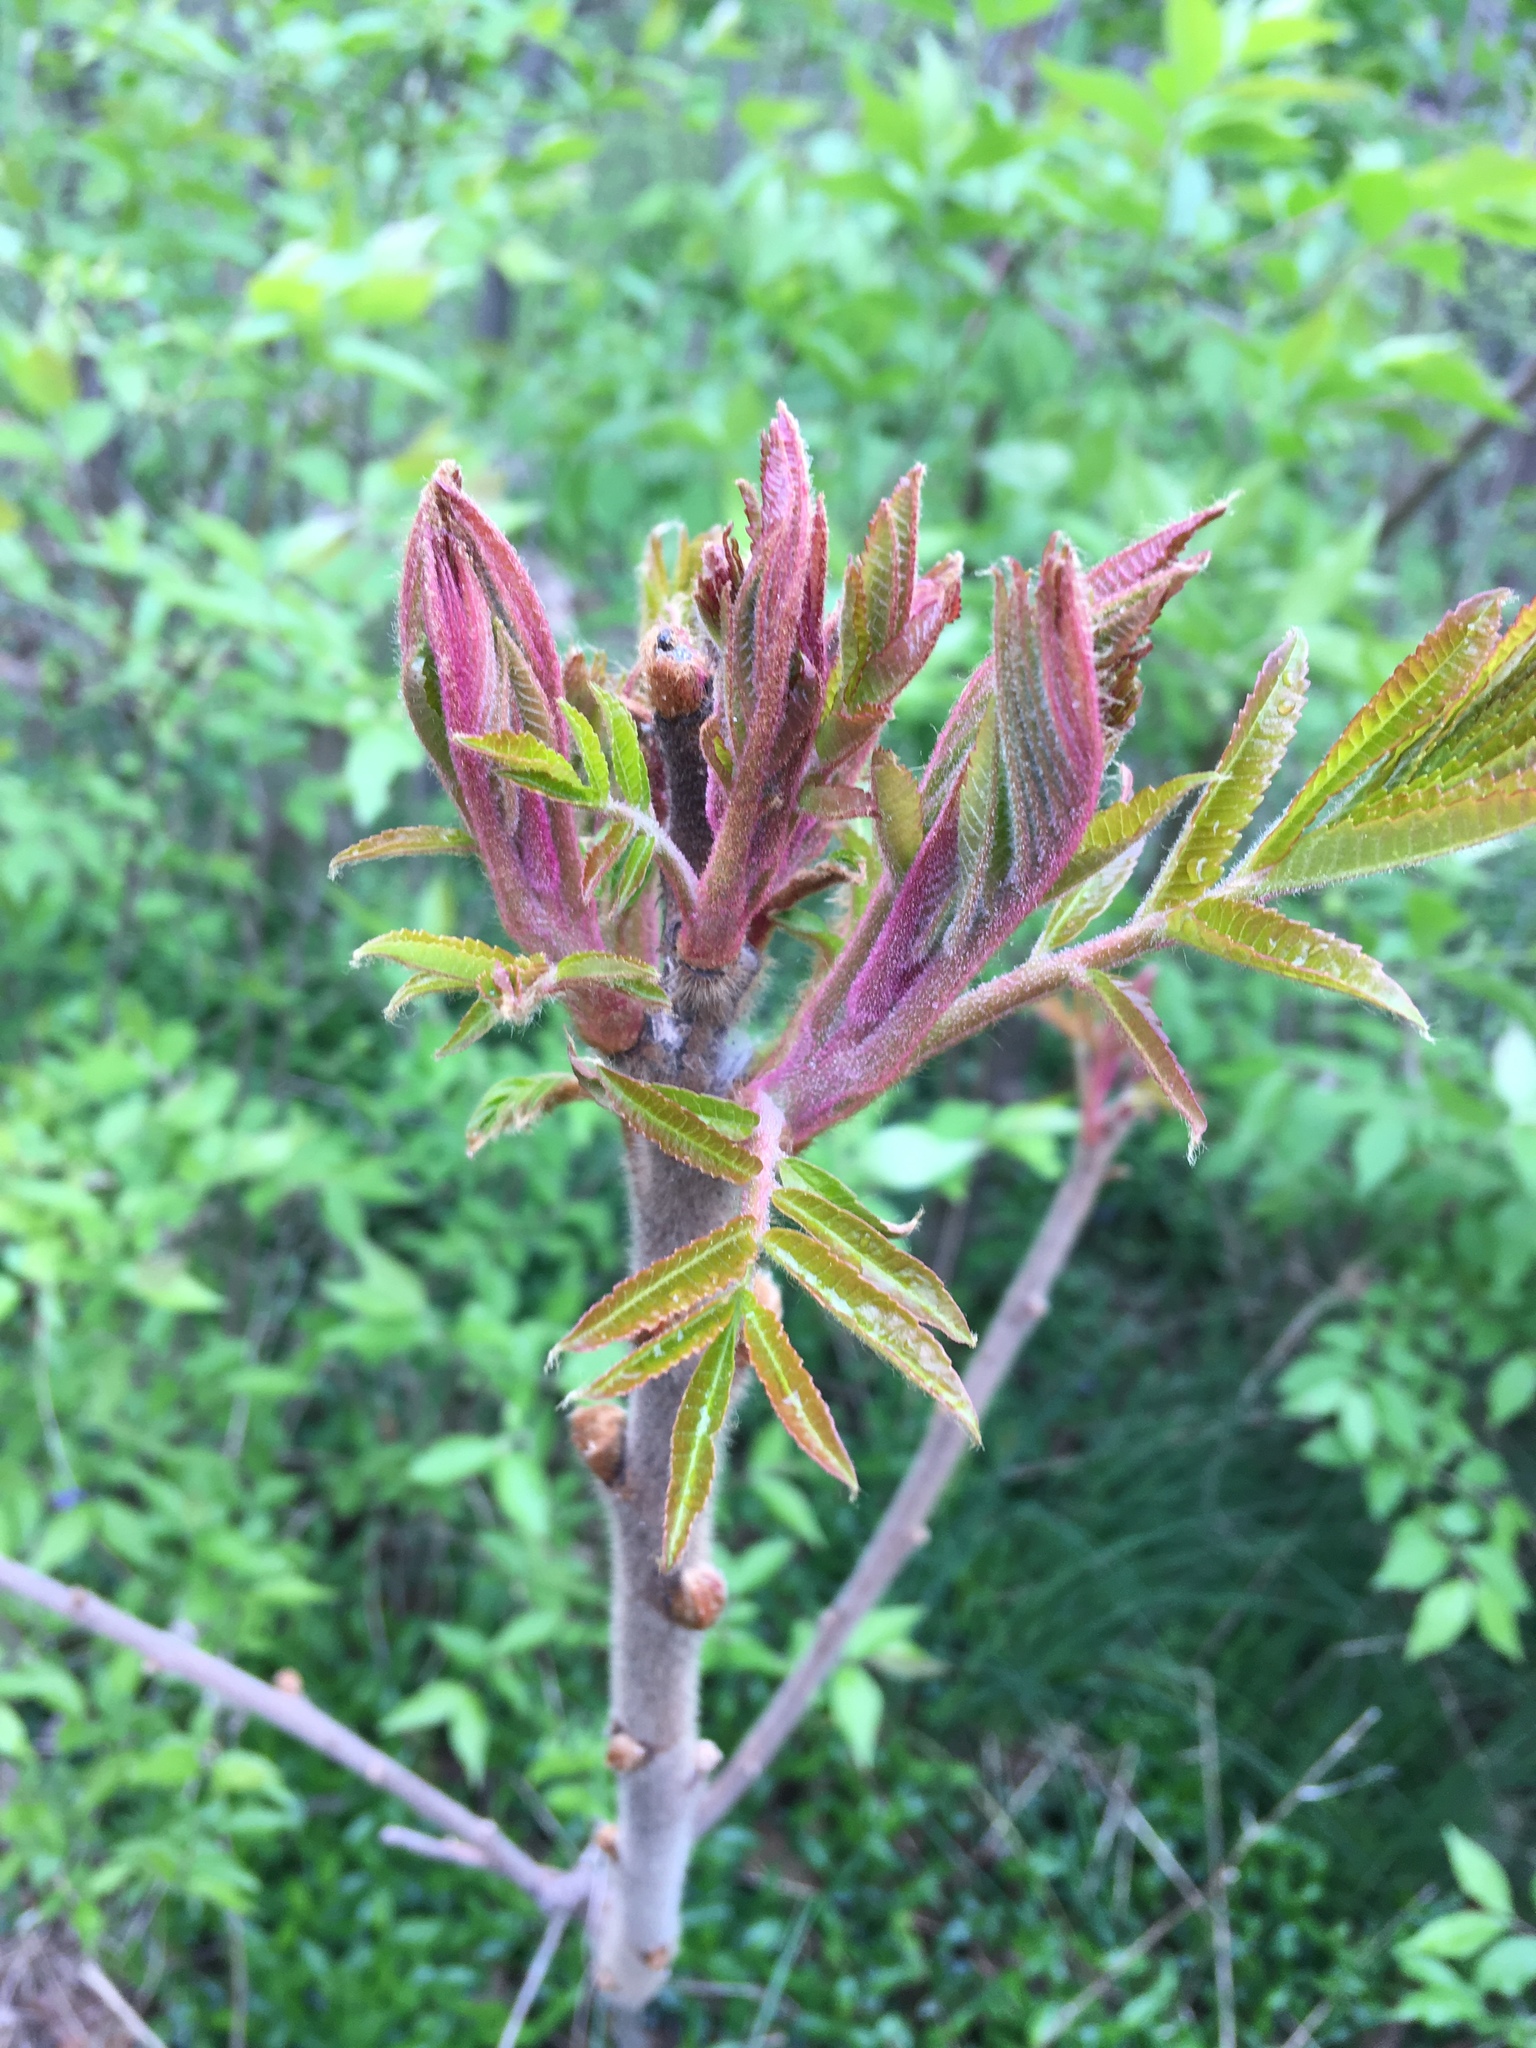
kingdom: Plantae
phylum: Tracheophyta
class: Magnoliopsida
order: Sapindales
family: Anacardiaceae
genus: Rhus
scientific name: Rhus typhina
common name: Staghorn sumac
